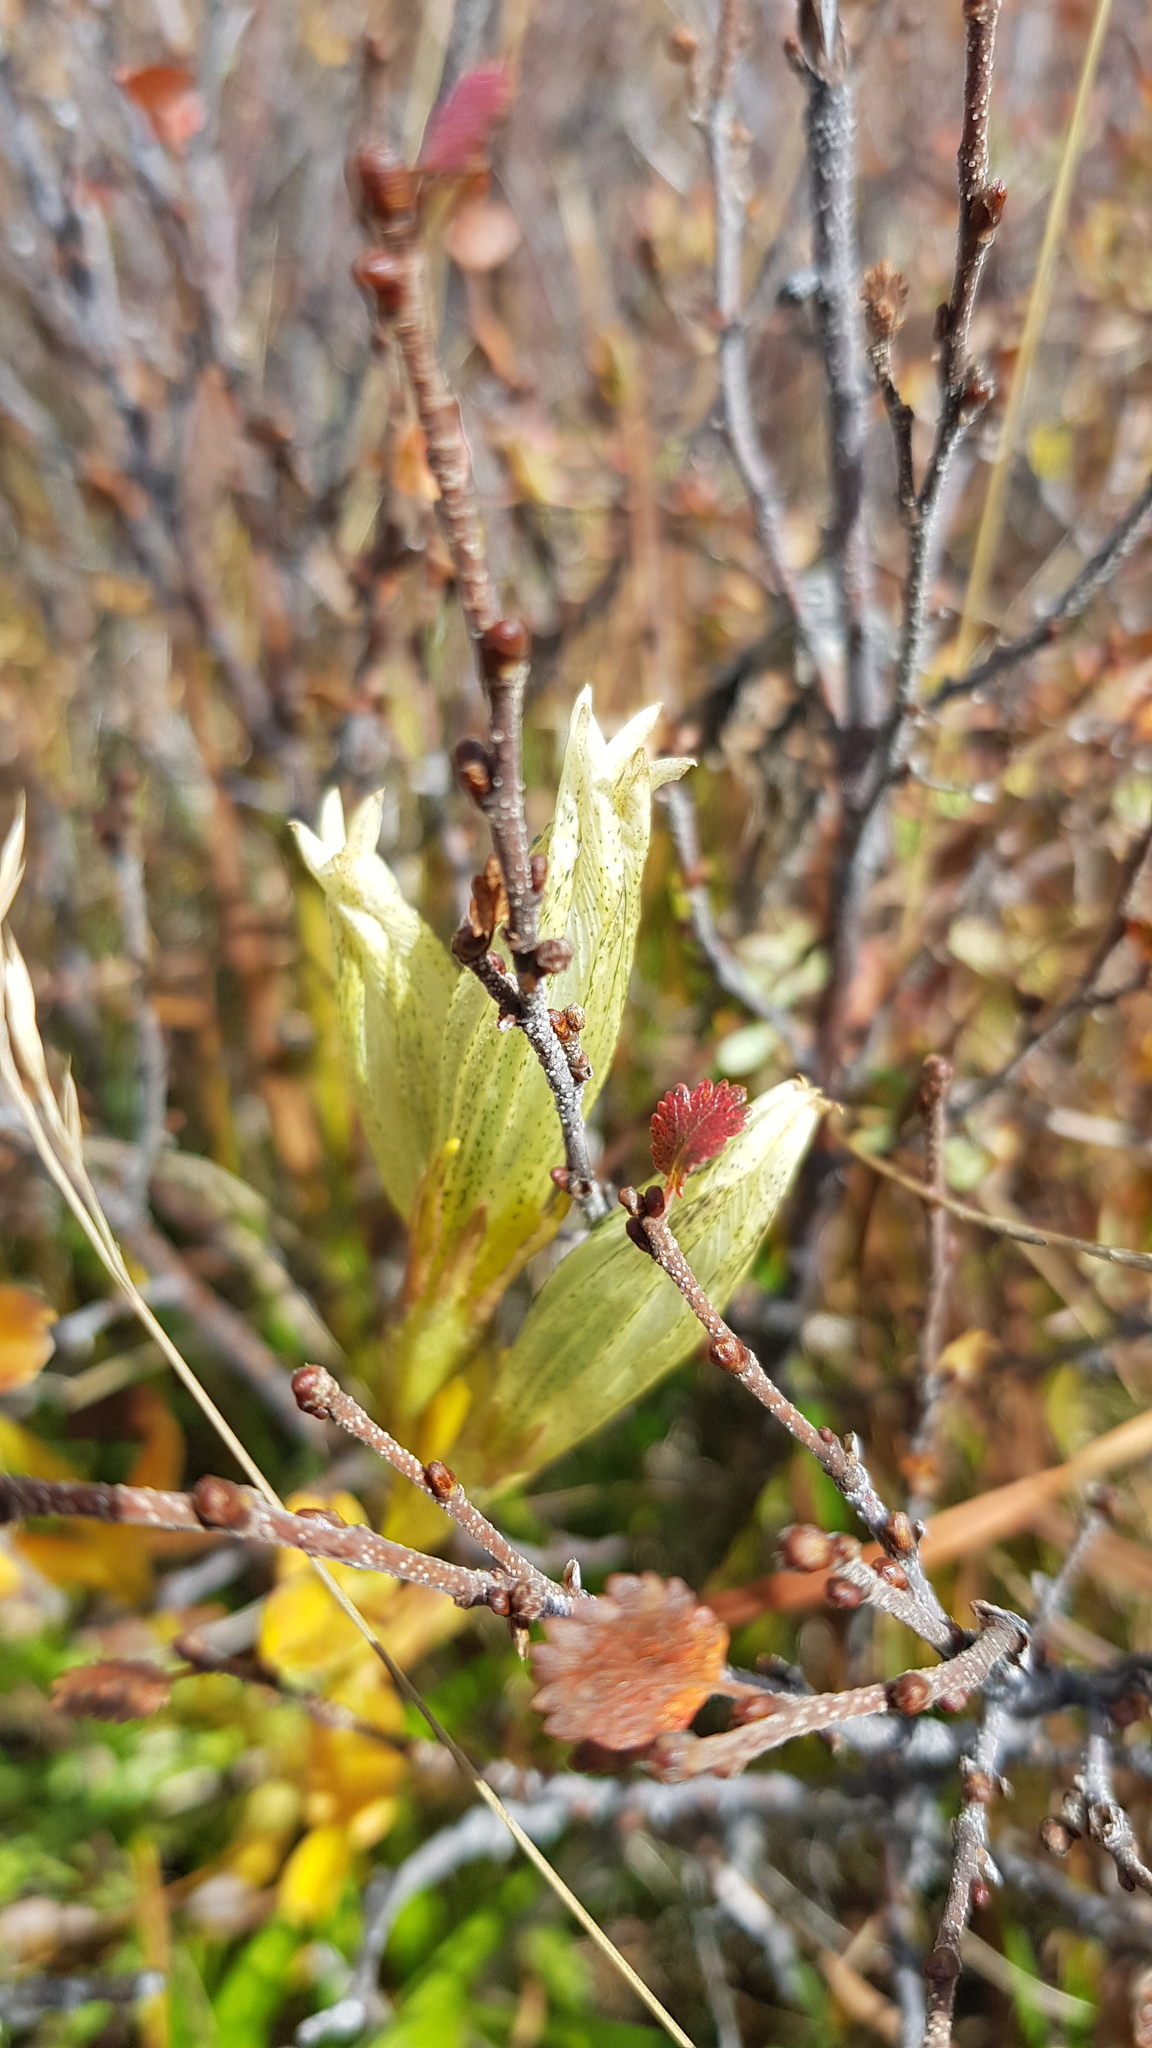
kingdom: Plantae
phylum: Tracheophyta
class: Magnoliopsida
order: Gentianales
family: Gentianaceae
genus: Gentiana
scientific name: Gentiana algida
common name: Arctic gentian
